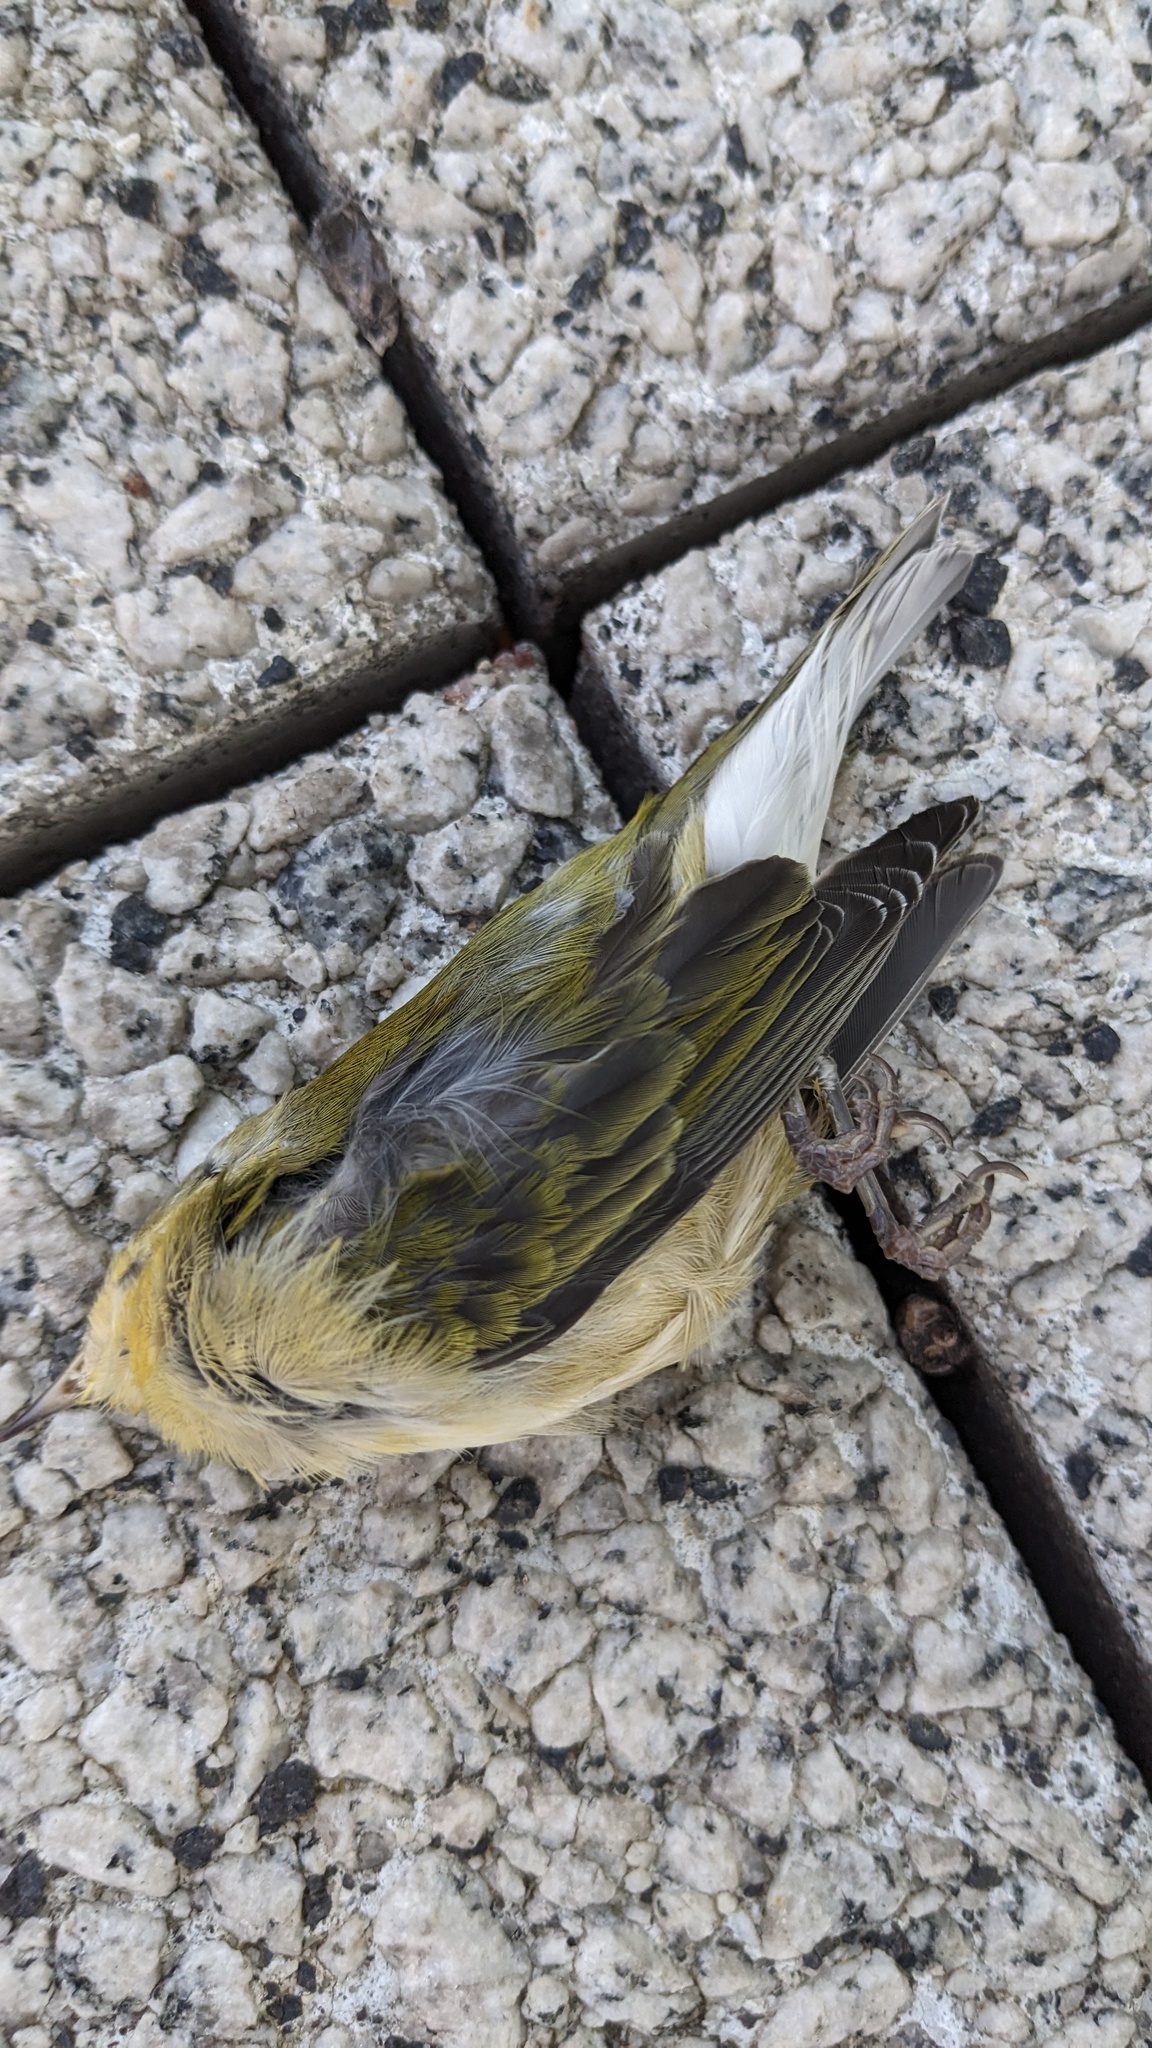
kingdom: Animalia
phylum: Chordata
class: Aves
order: Passeriformes
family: Parulidae
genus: Leiothlypis
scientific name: Leiothlypis peregrina
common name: Tennessee warbler
